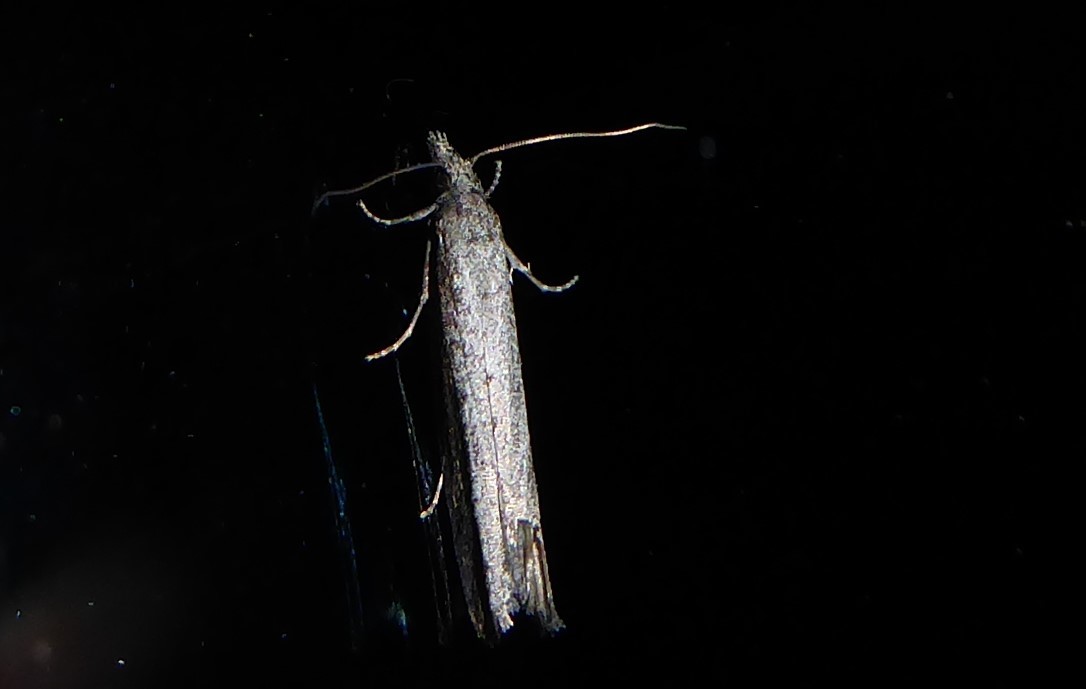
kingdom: Animalia
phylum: Arthropoda
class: Insecta
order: Lepidoptera
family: Tortricidae
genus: Strepsicrates
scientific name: Strepsicrates infensa
